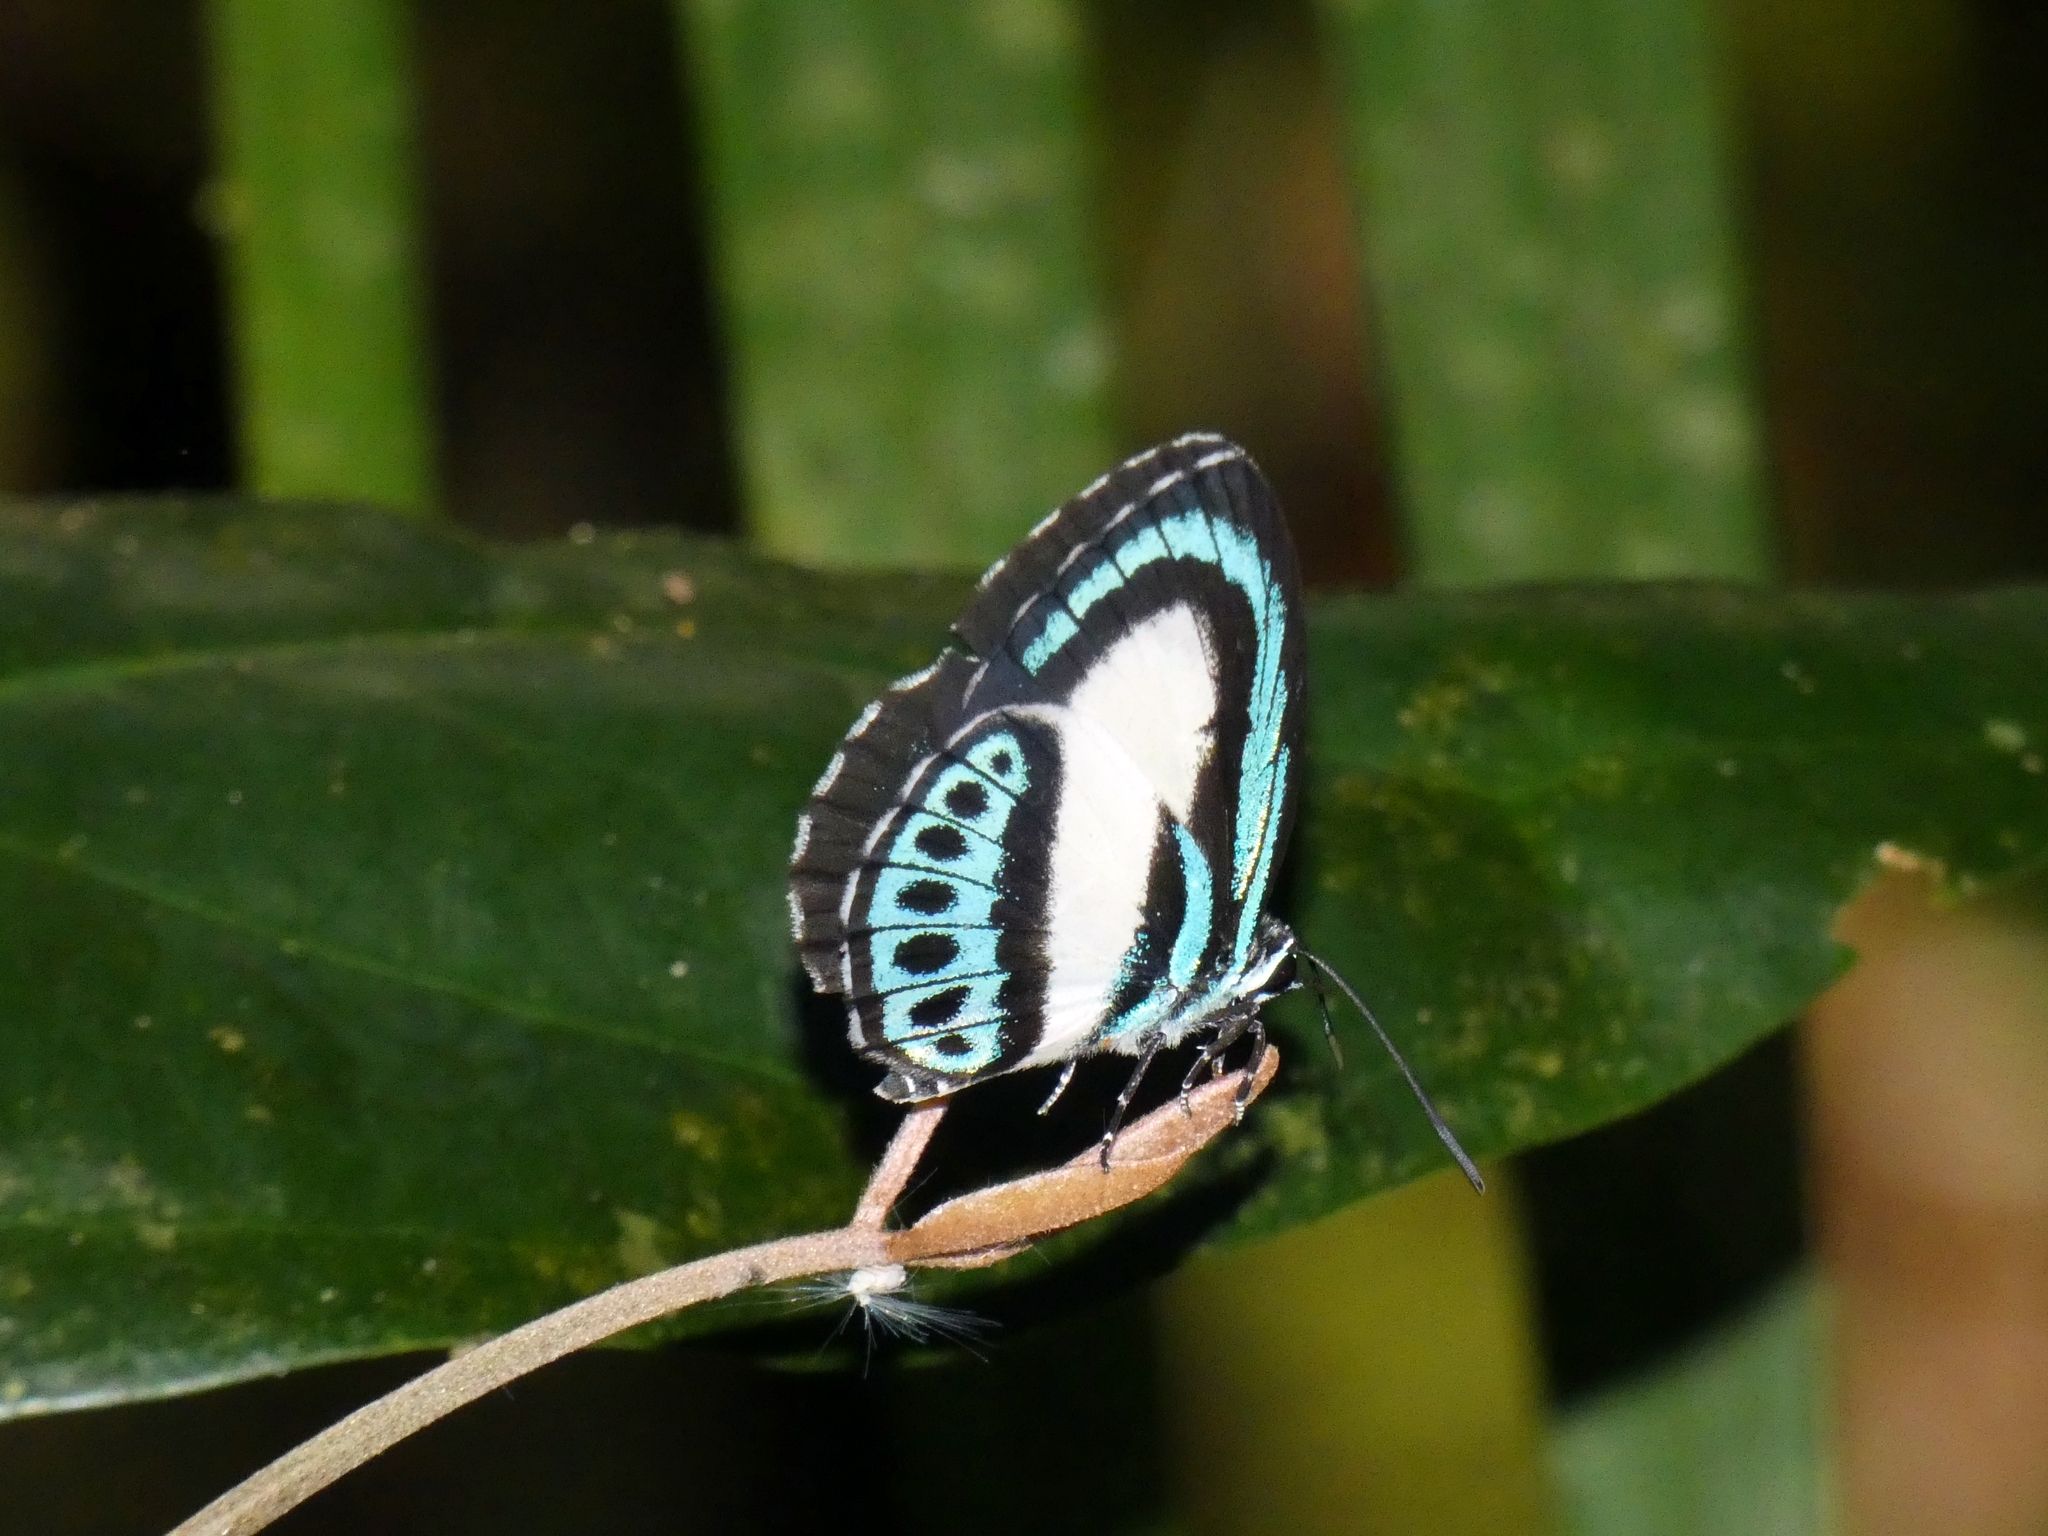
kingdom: Animalia
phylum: Arthropoda
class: Insecta
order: Lepidoptera
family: Lycaenidae
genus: Danis
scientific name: Danis danis
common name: Large green-banded blue
